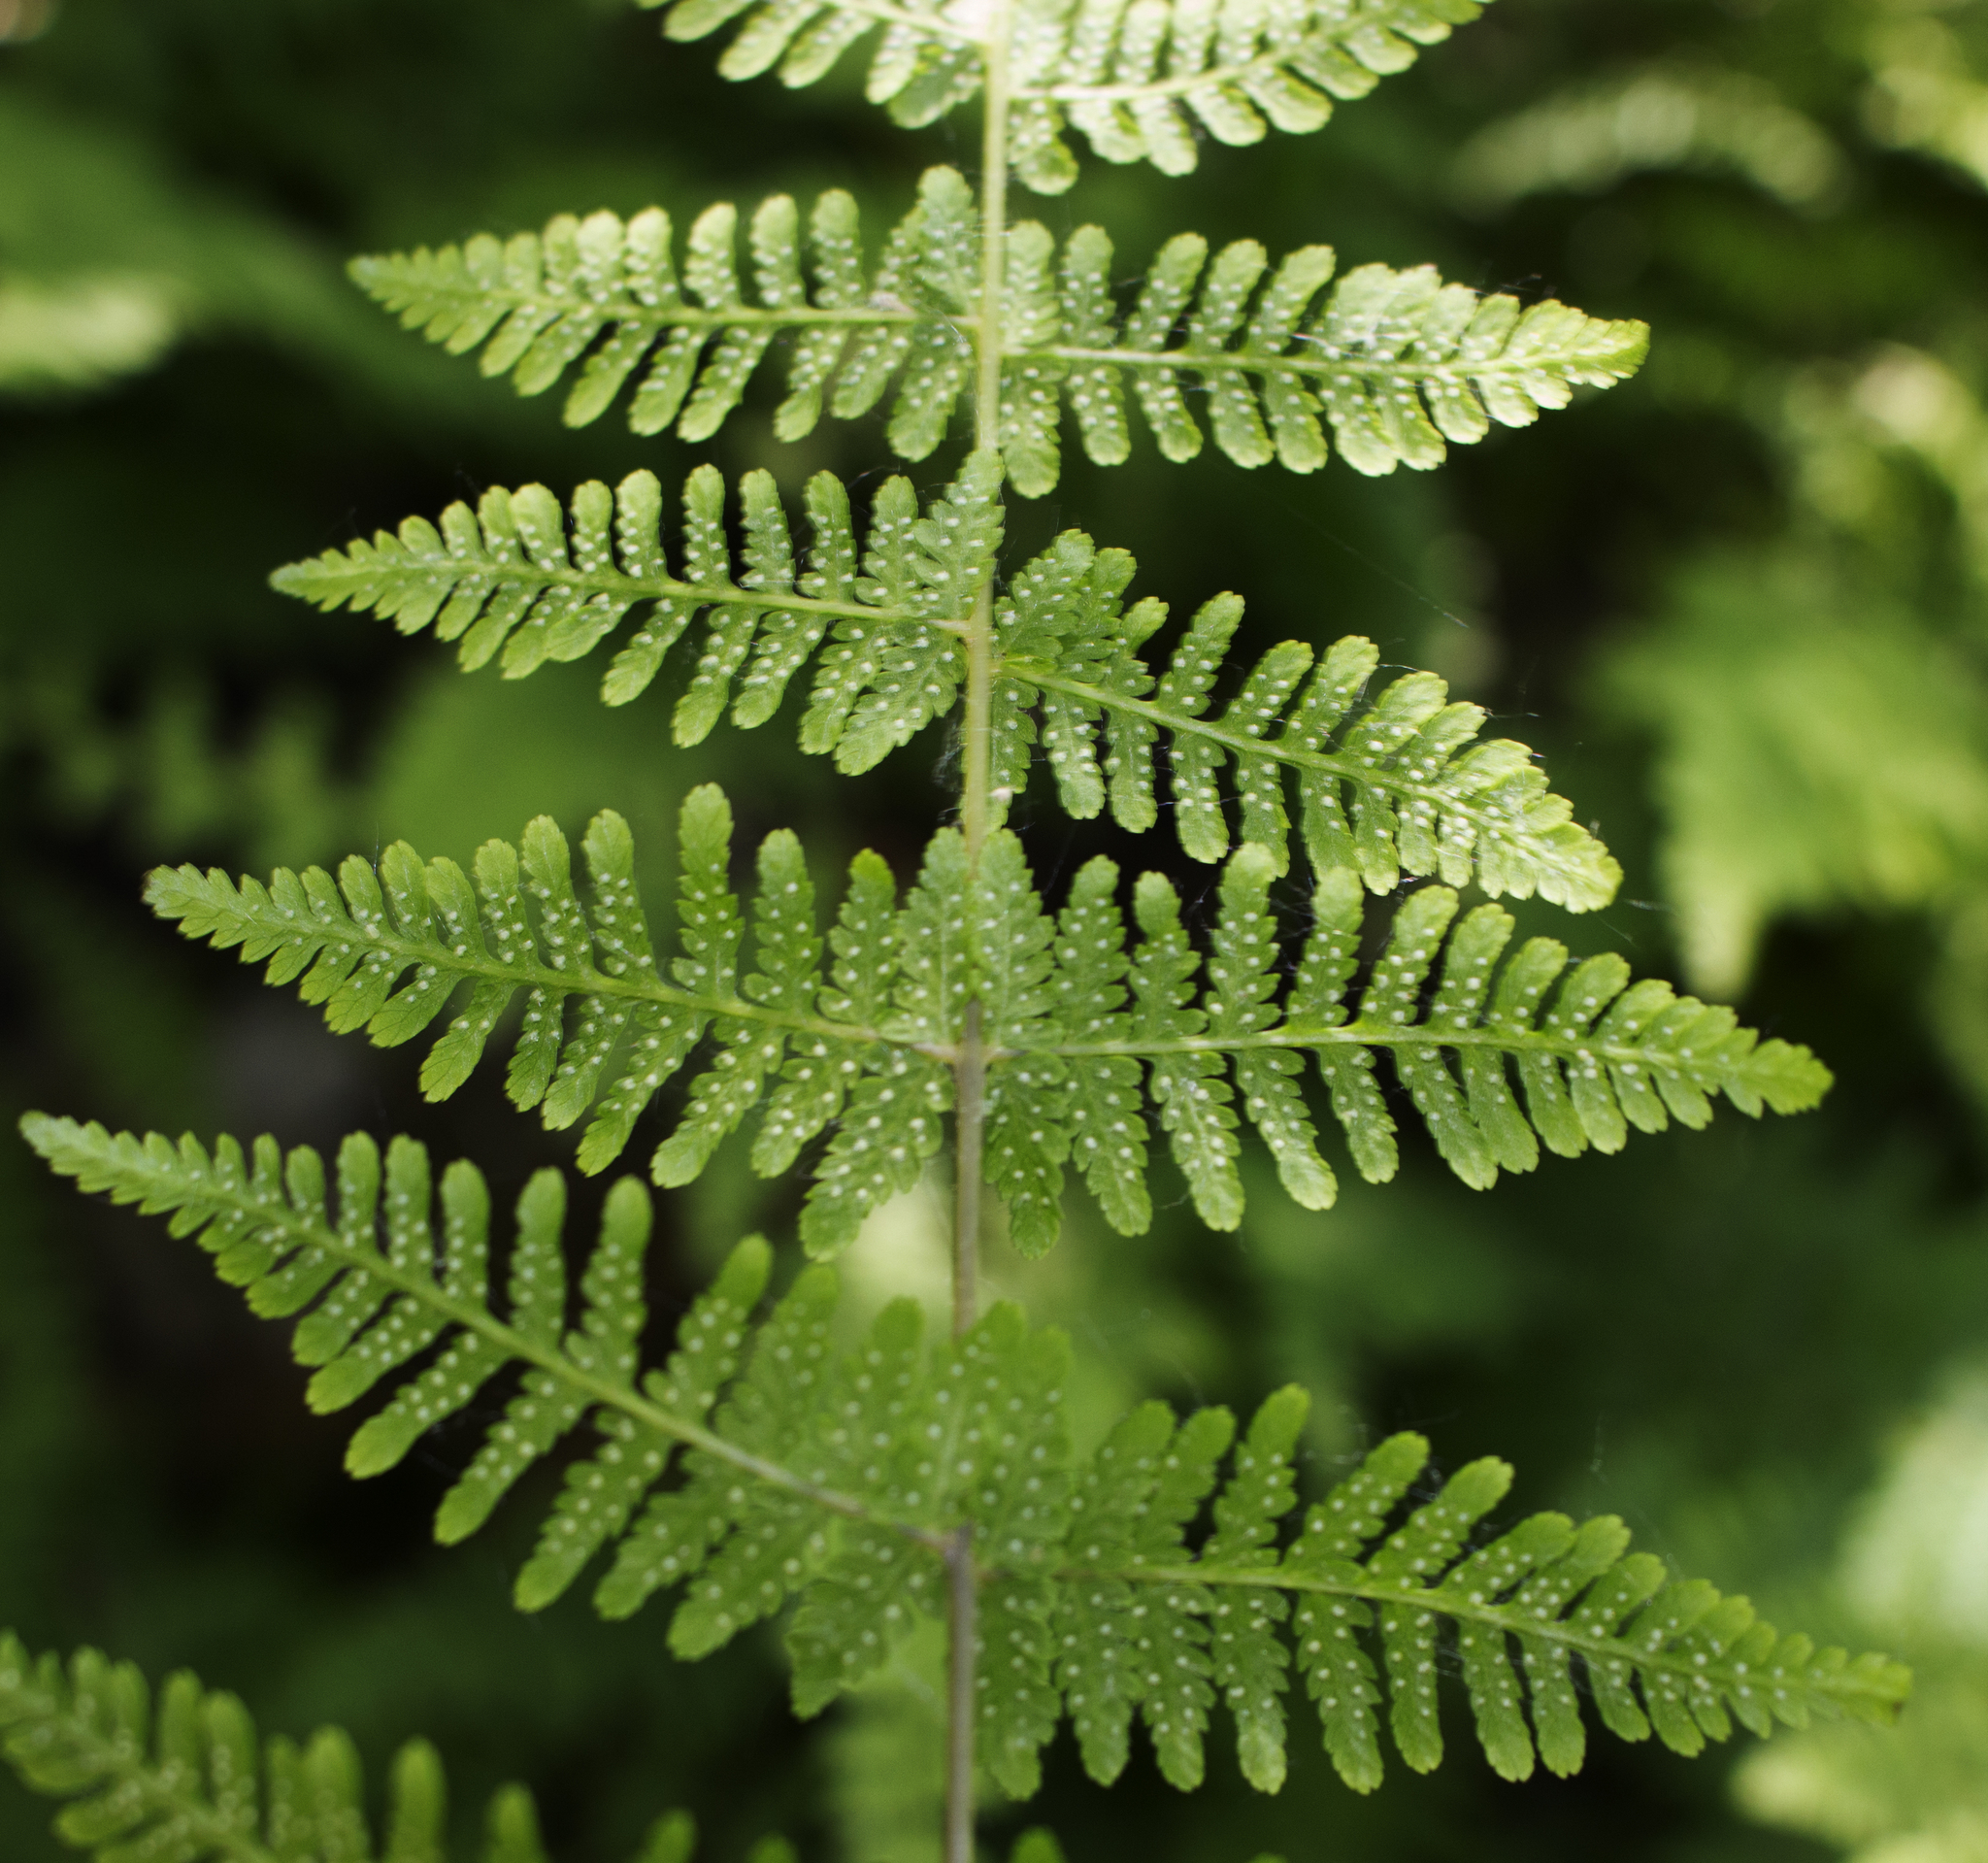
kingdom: Plantae
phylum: Tracheophyta
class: Polypodiopsida
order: Polypodiales
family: Cystopteridaceae
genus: Cystopteris
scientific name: Cystopteris bulbifera
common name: Bulblet bladder fern
